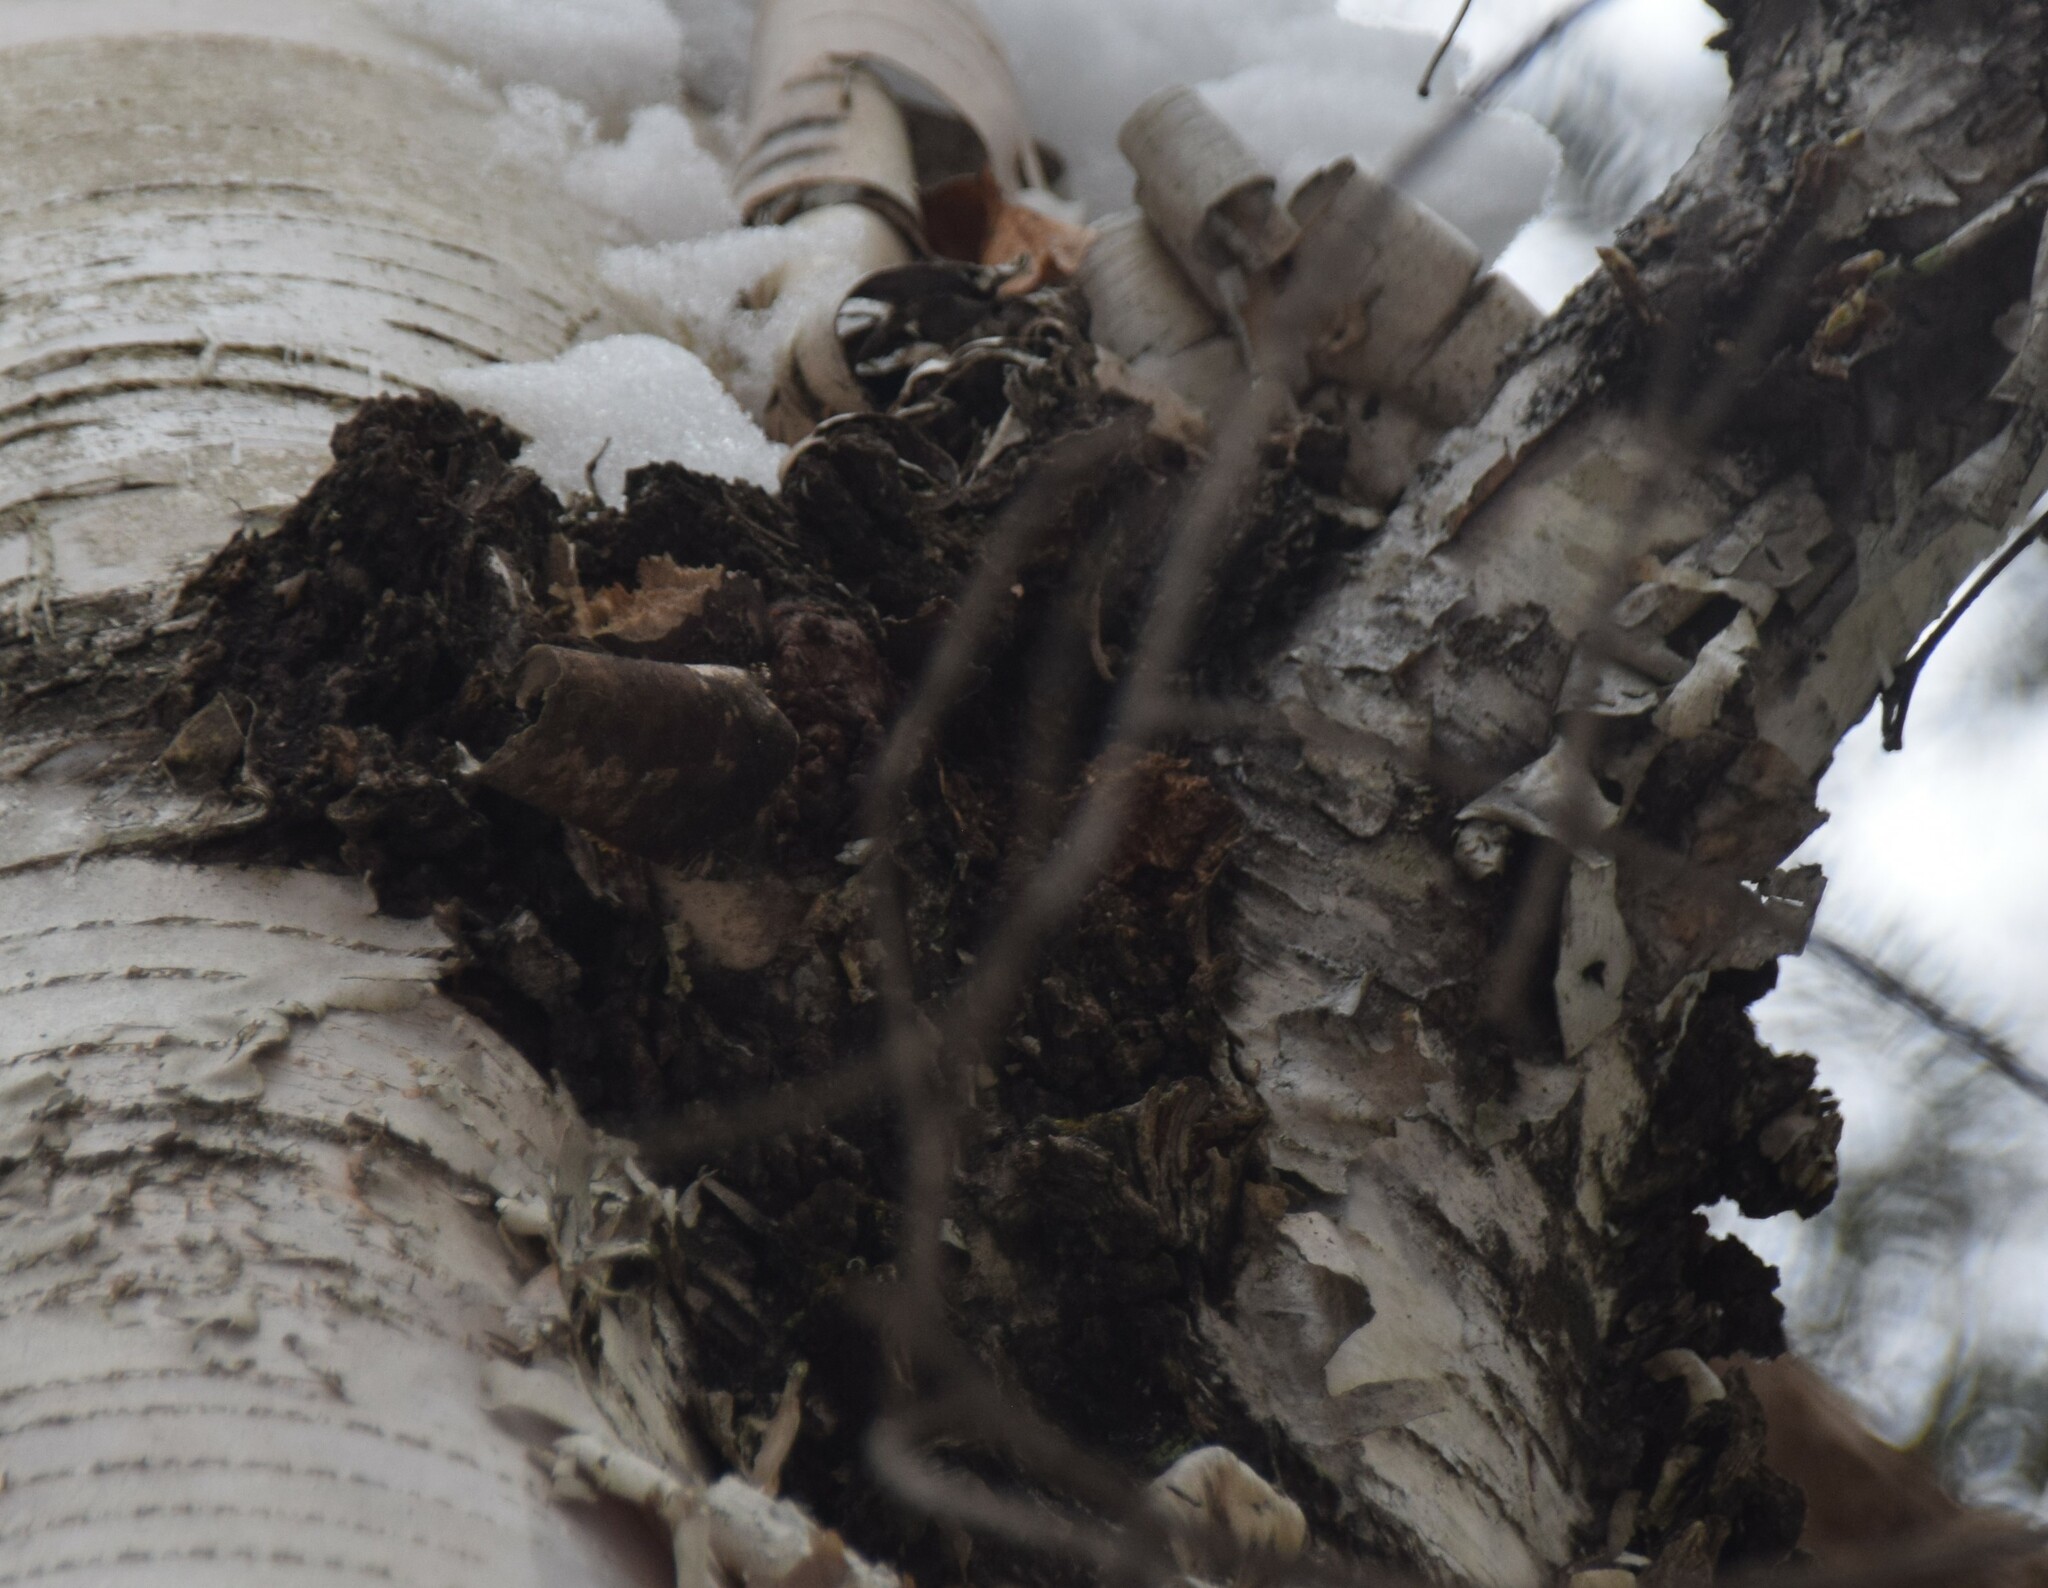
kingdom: Fungi
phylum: Basidiomycota
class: Agaricomycetes
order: Hymenochaetales
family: Hymenochaetaceae
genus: Inonotus
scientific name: Inonotus obliquus
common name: Chaga
